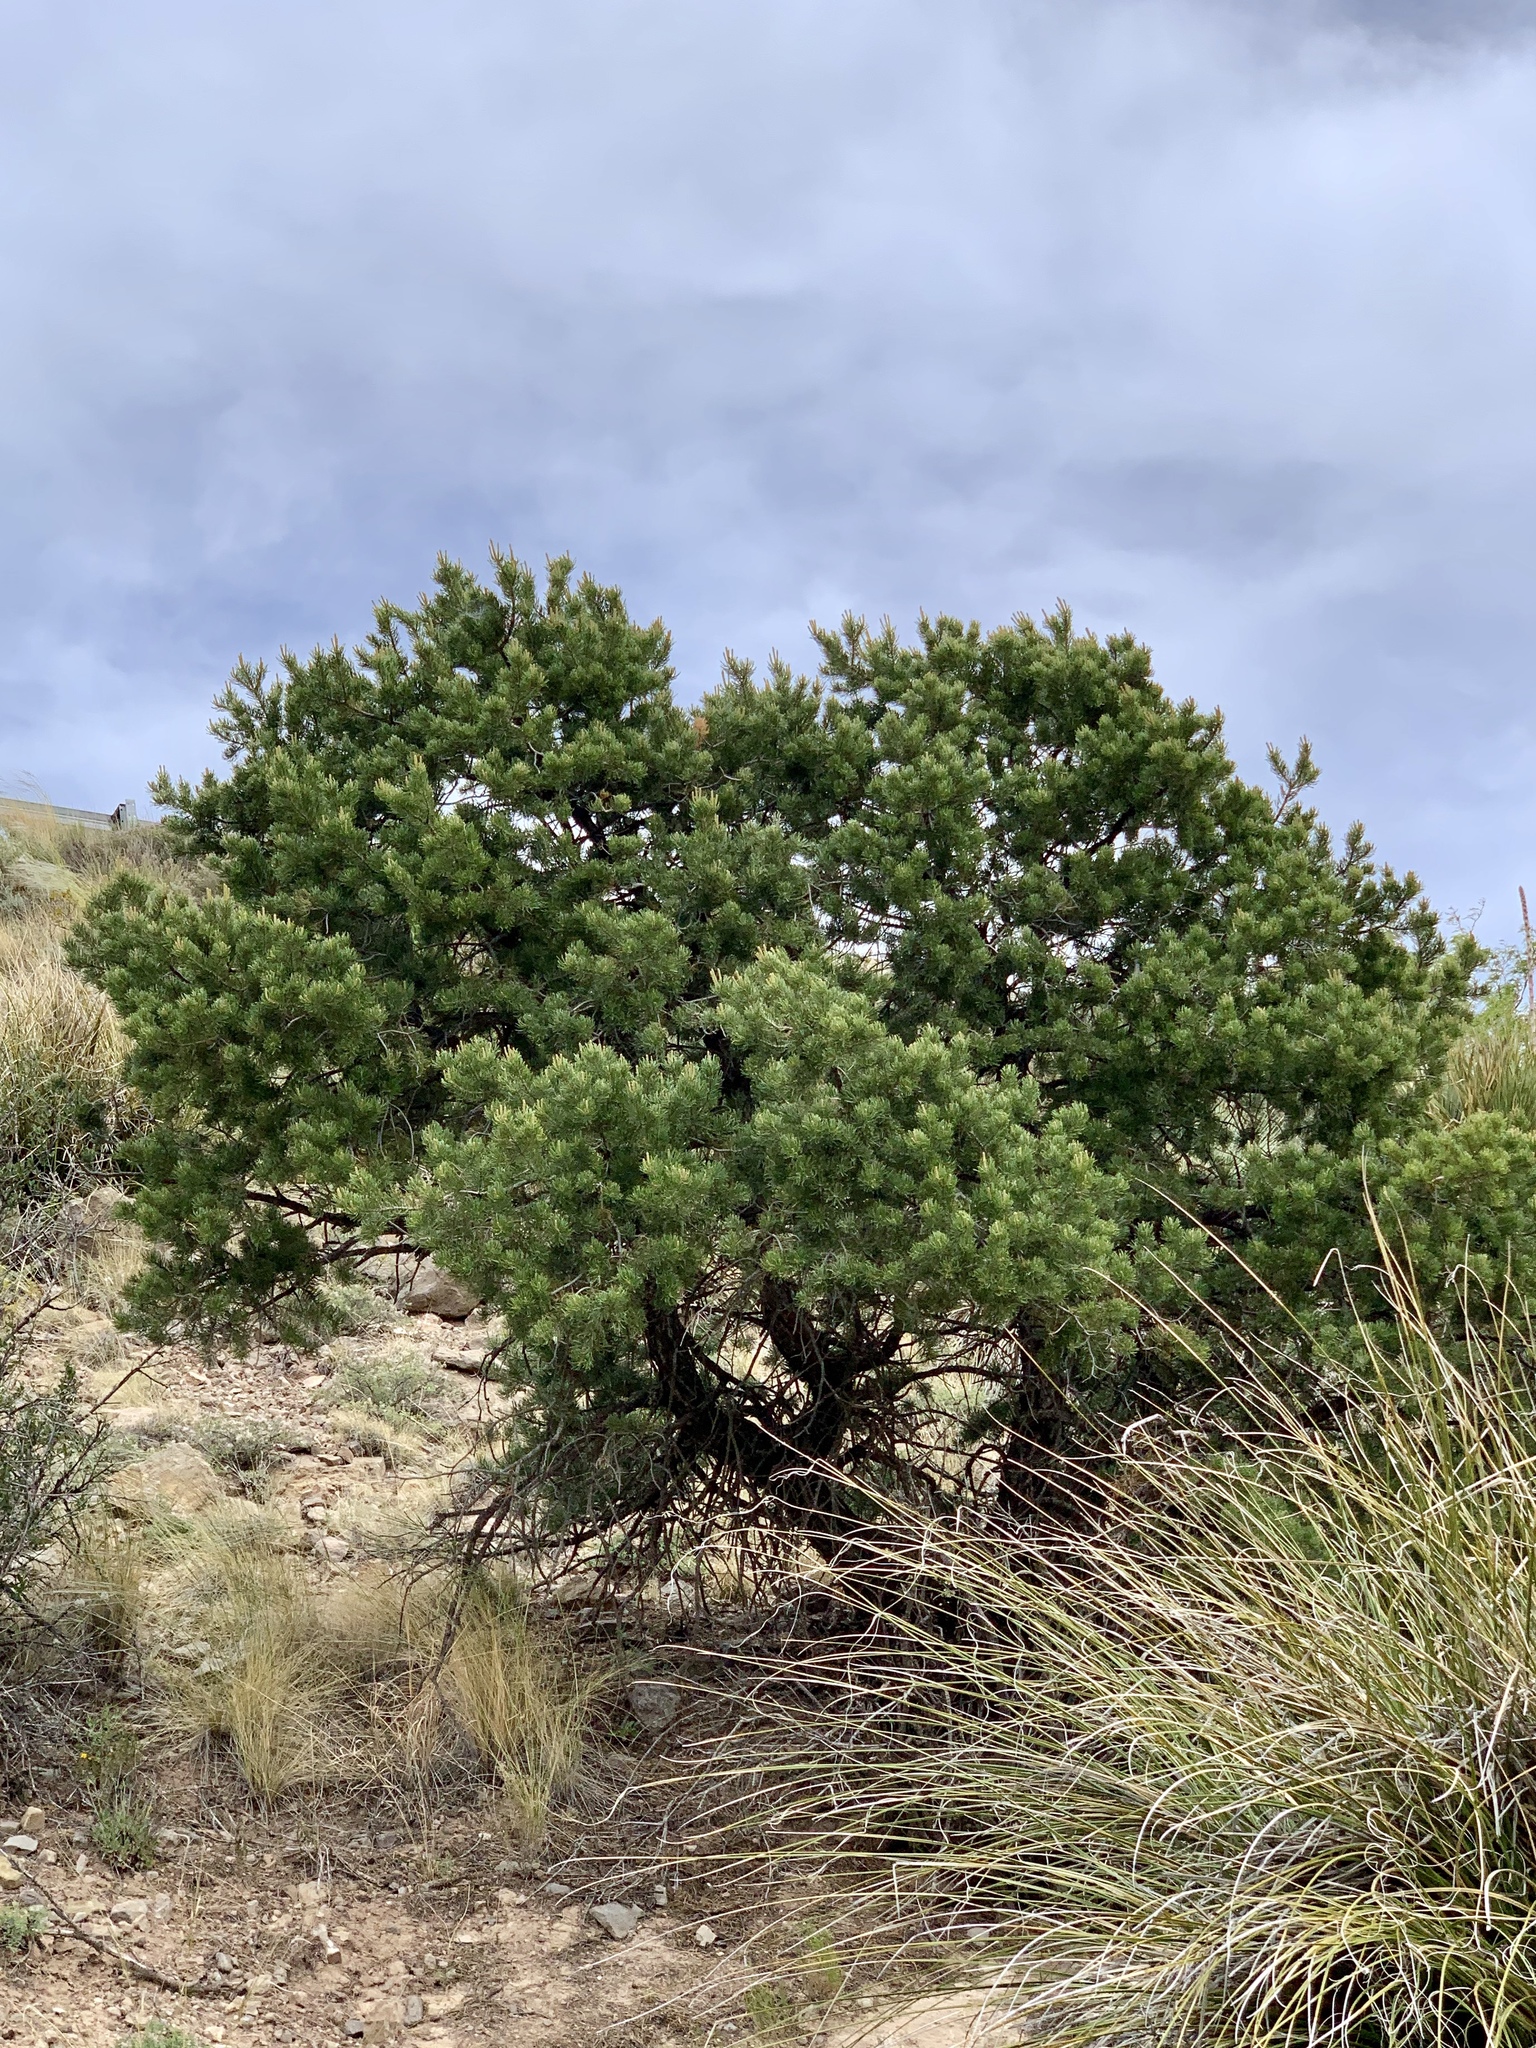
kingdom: Plantae
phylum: Tracheophyta
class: Pinopsida
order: Pinales
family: Pinaceae
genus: Pinus
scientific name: Pinus edulis
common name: Colorado pinyon
